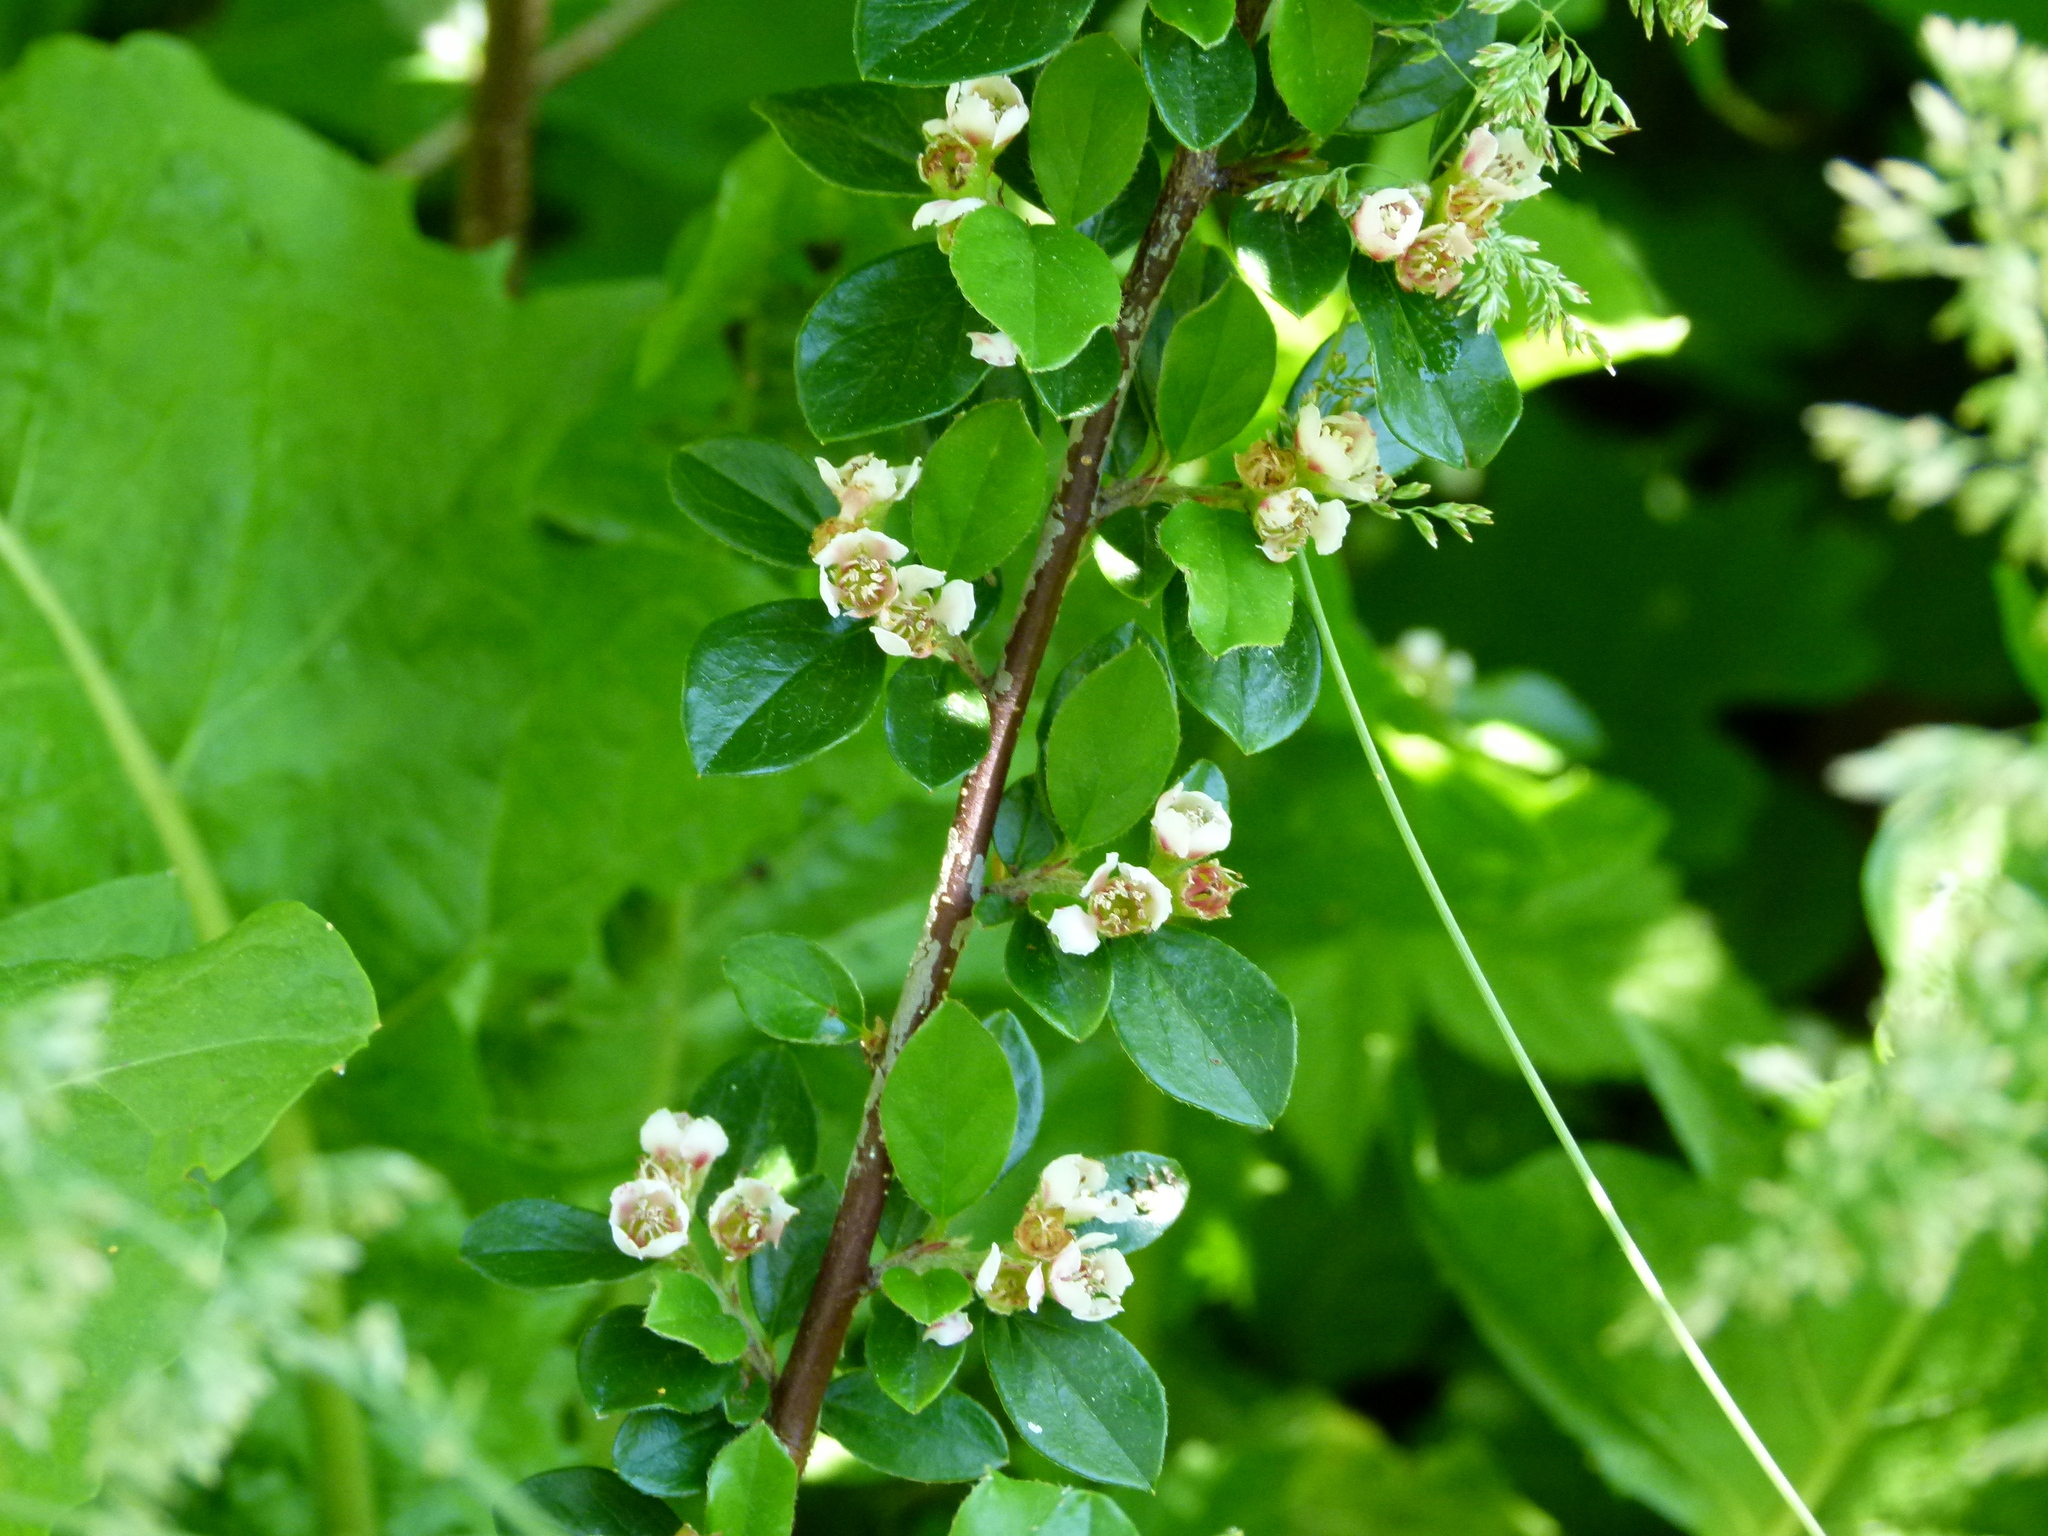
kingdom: Plantae
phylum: Tracheophyta
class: Magnoliopsida
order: Rosales
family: Rosaceae
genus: Cotoneaster
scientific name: Cotoneaster divaricatus
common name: Spreading cotoneaster
